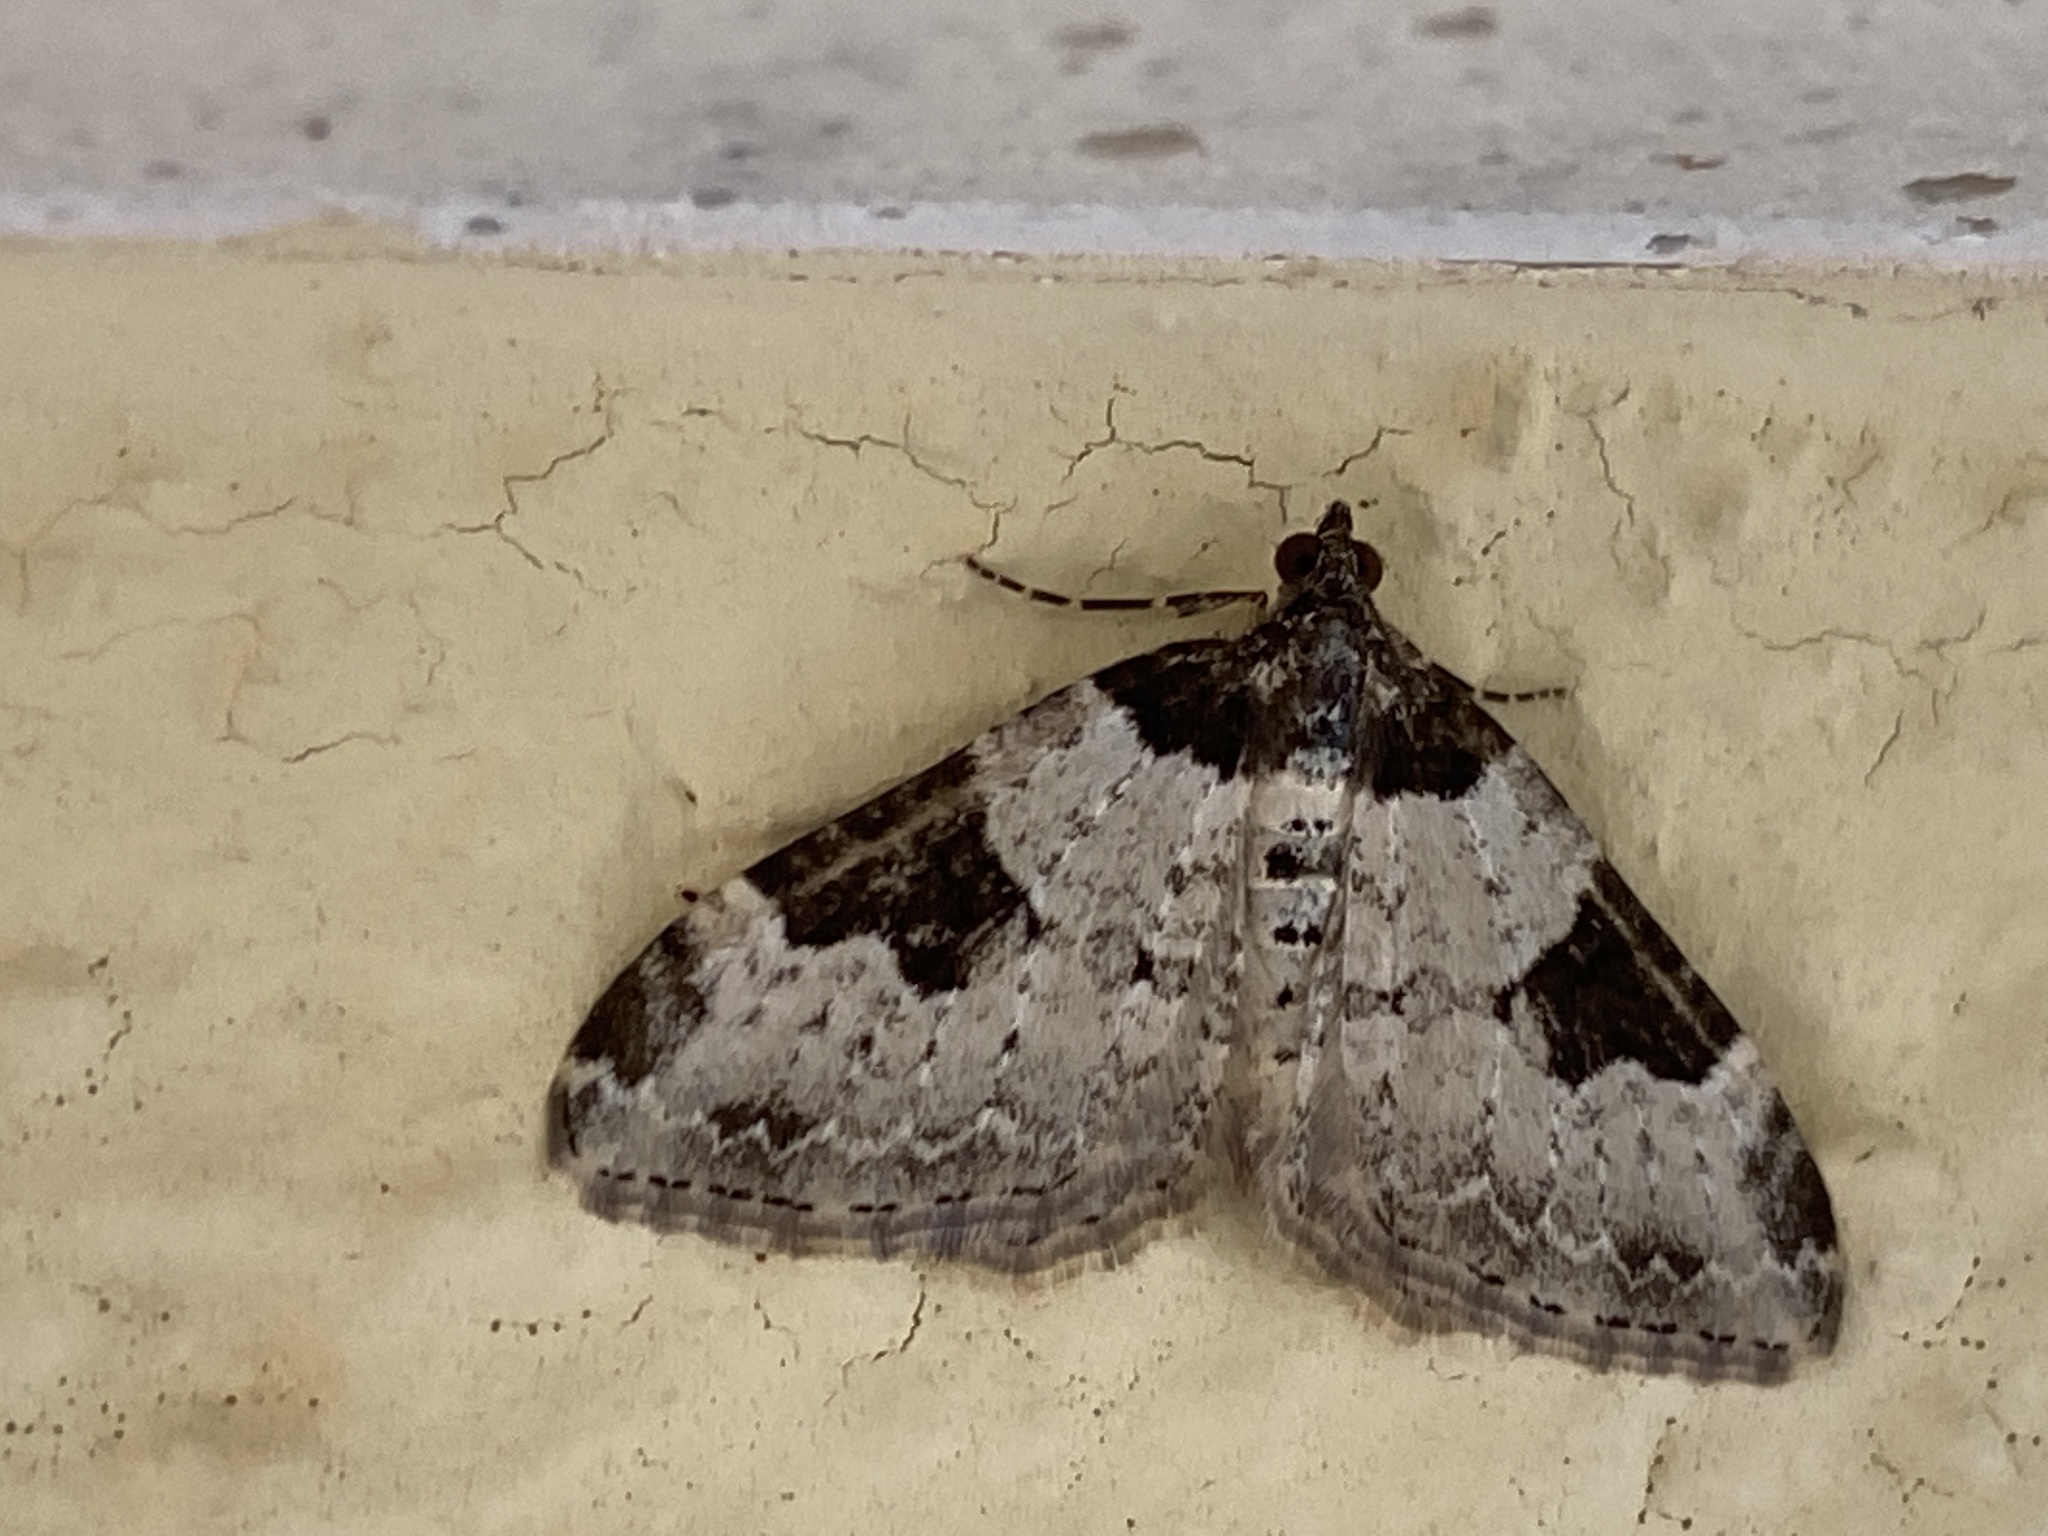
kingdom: Animalia
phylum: Arthropoda
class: Insecta
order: Lepidoptera
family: Geometridae
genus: Xanthorhoe
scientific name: Xanthorhoe fluctuata
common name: Garden carpet
